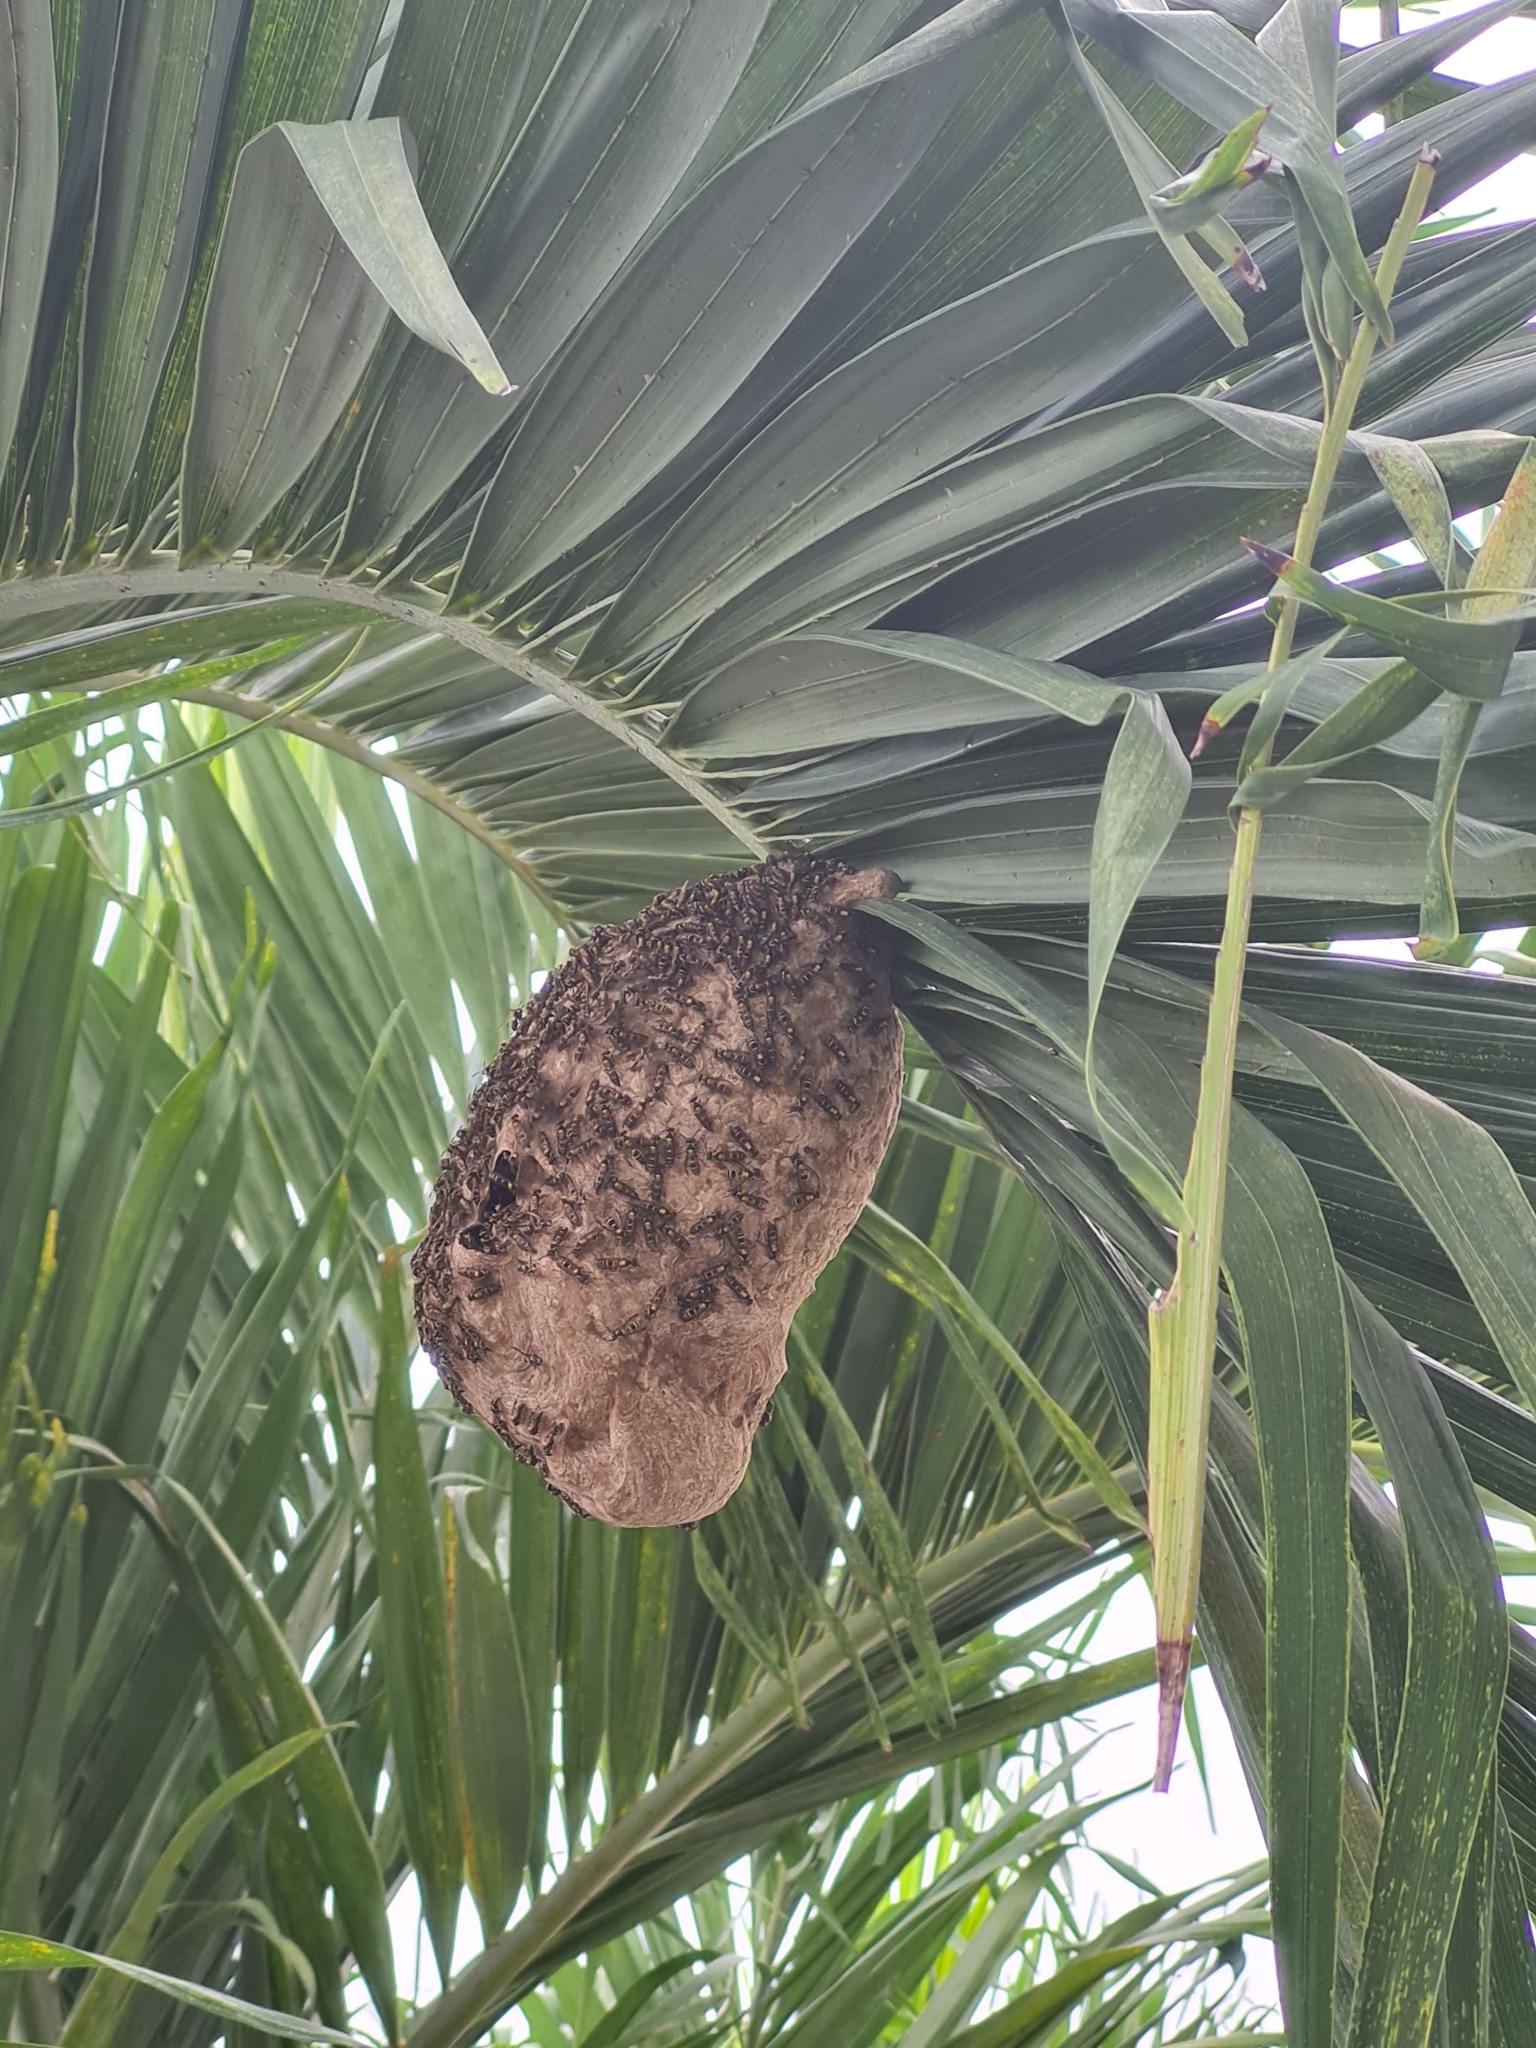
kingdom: Animalia
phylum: Arthropoda
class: Insecta
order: Hymenoptera
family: Eumenidae
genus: Polybia
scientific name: Polybia occidentalis
